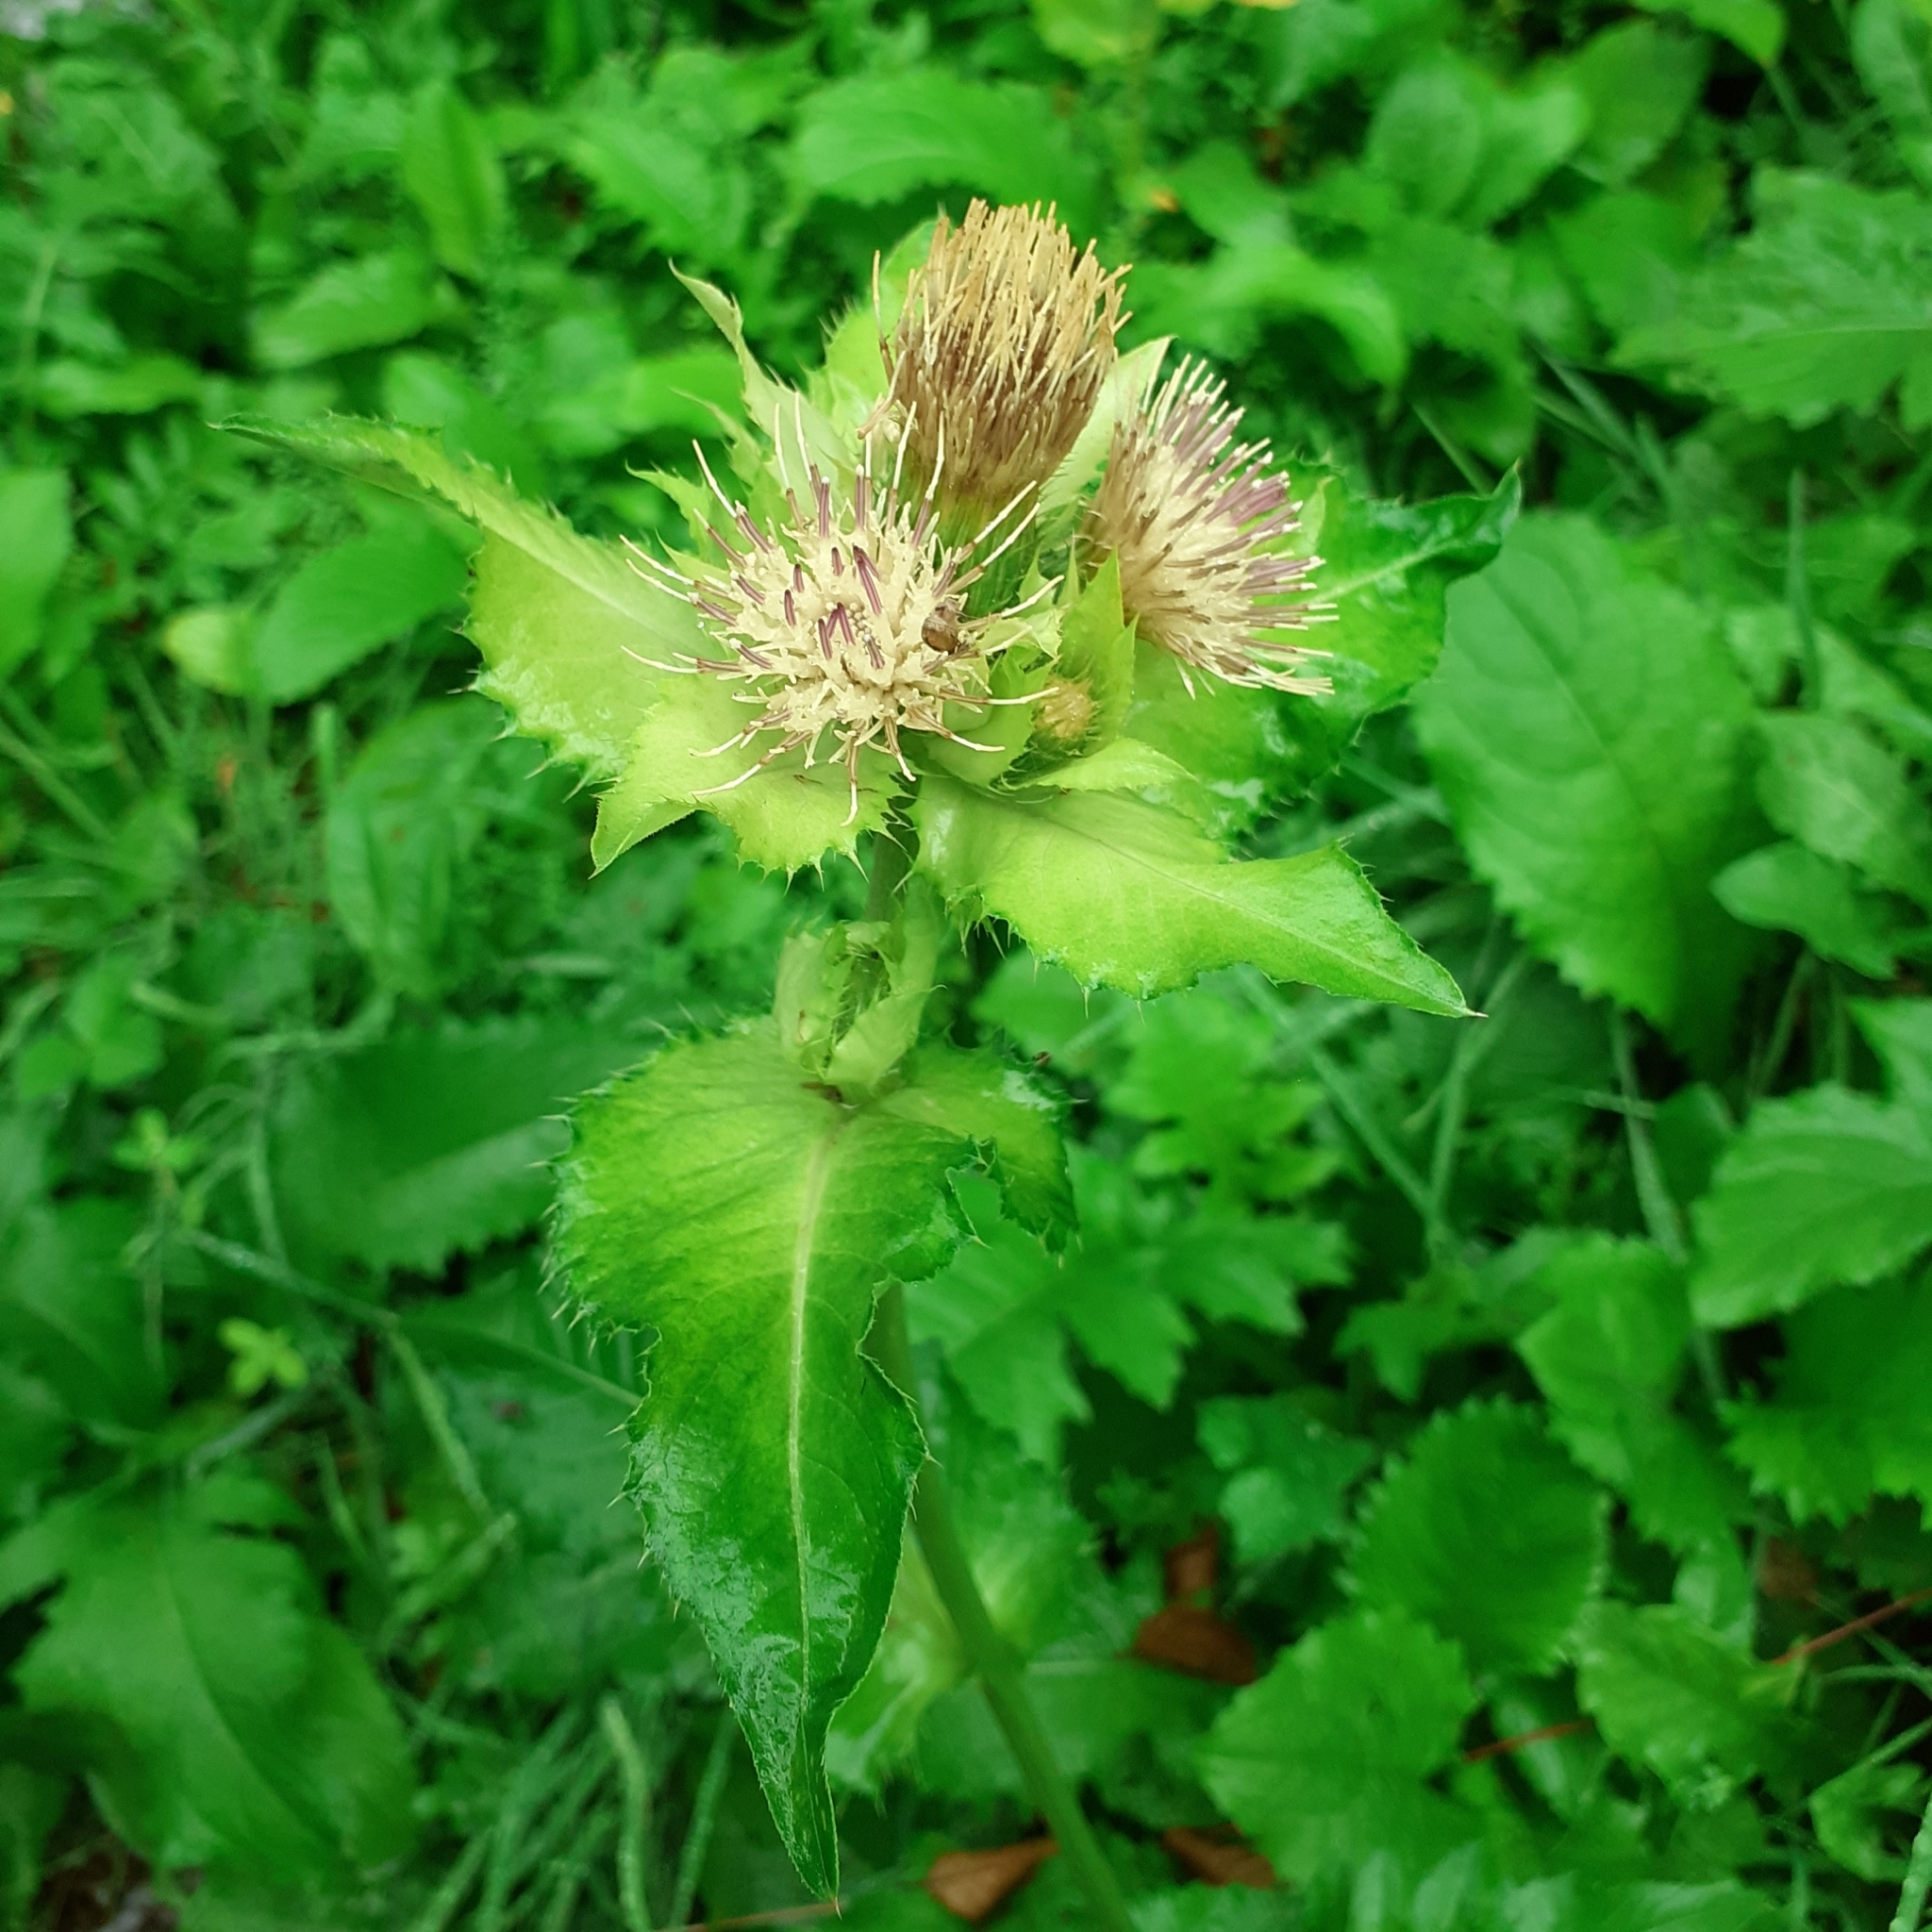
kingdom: Plantae
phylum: Tracheophyta
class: Magnoliopsida
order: Asterales
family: Asteraceae
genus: Cirsium
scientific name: Cirsium oleraceum
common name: Cabbage thistle
